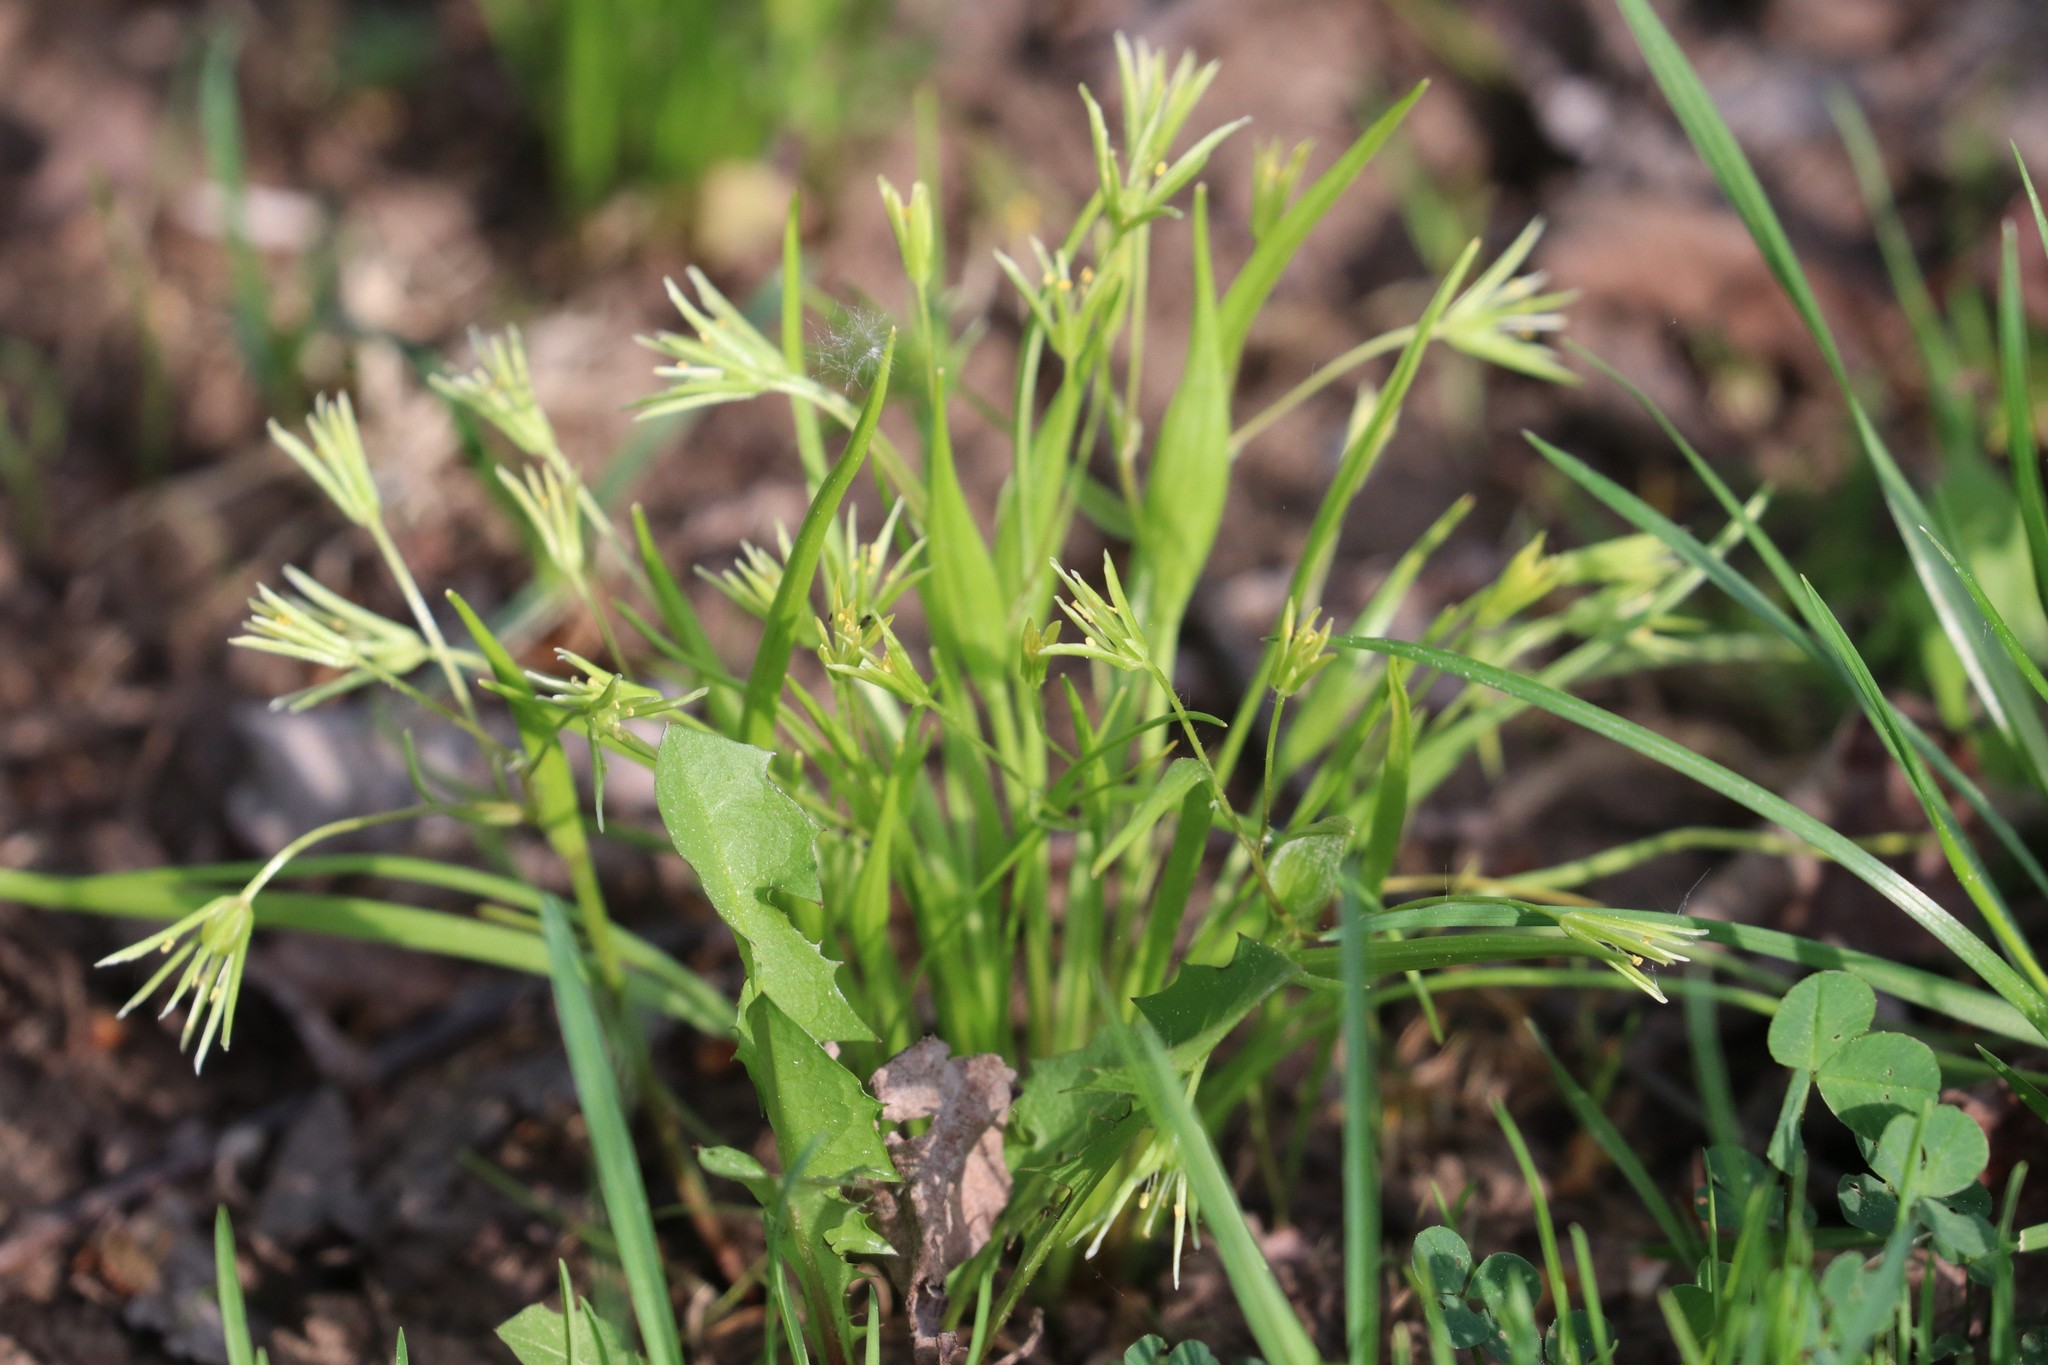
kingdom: Plantae
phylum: Tracheophyta
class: Liliopsida
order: Liliales
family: Liliaceae
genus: Gagea
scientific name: Gagea minima
